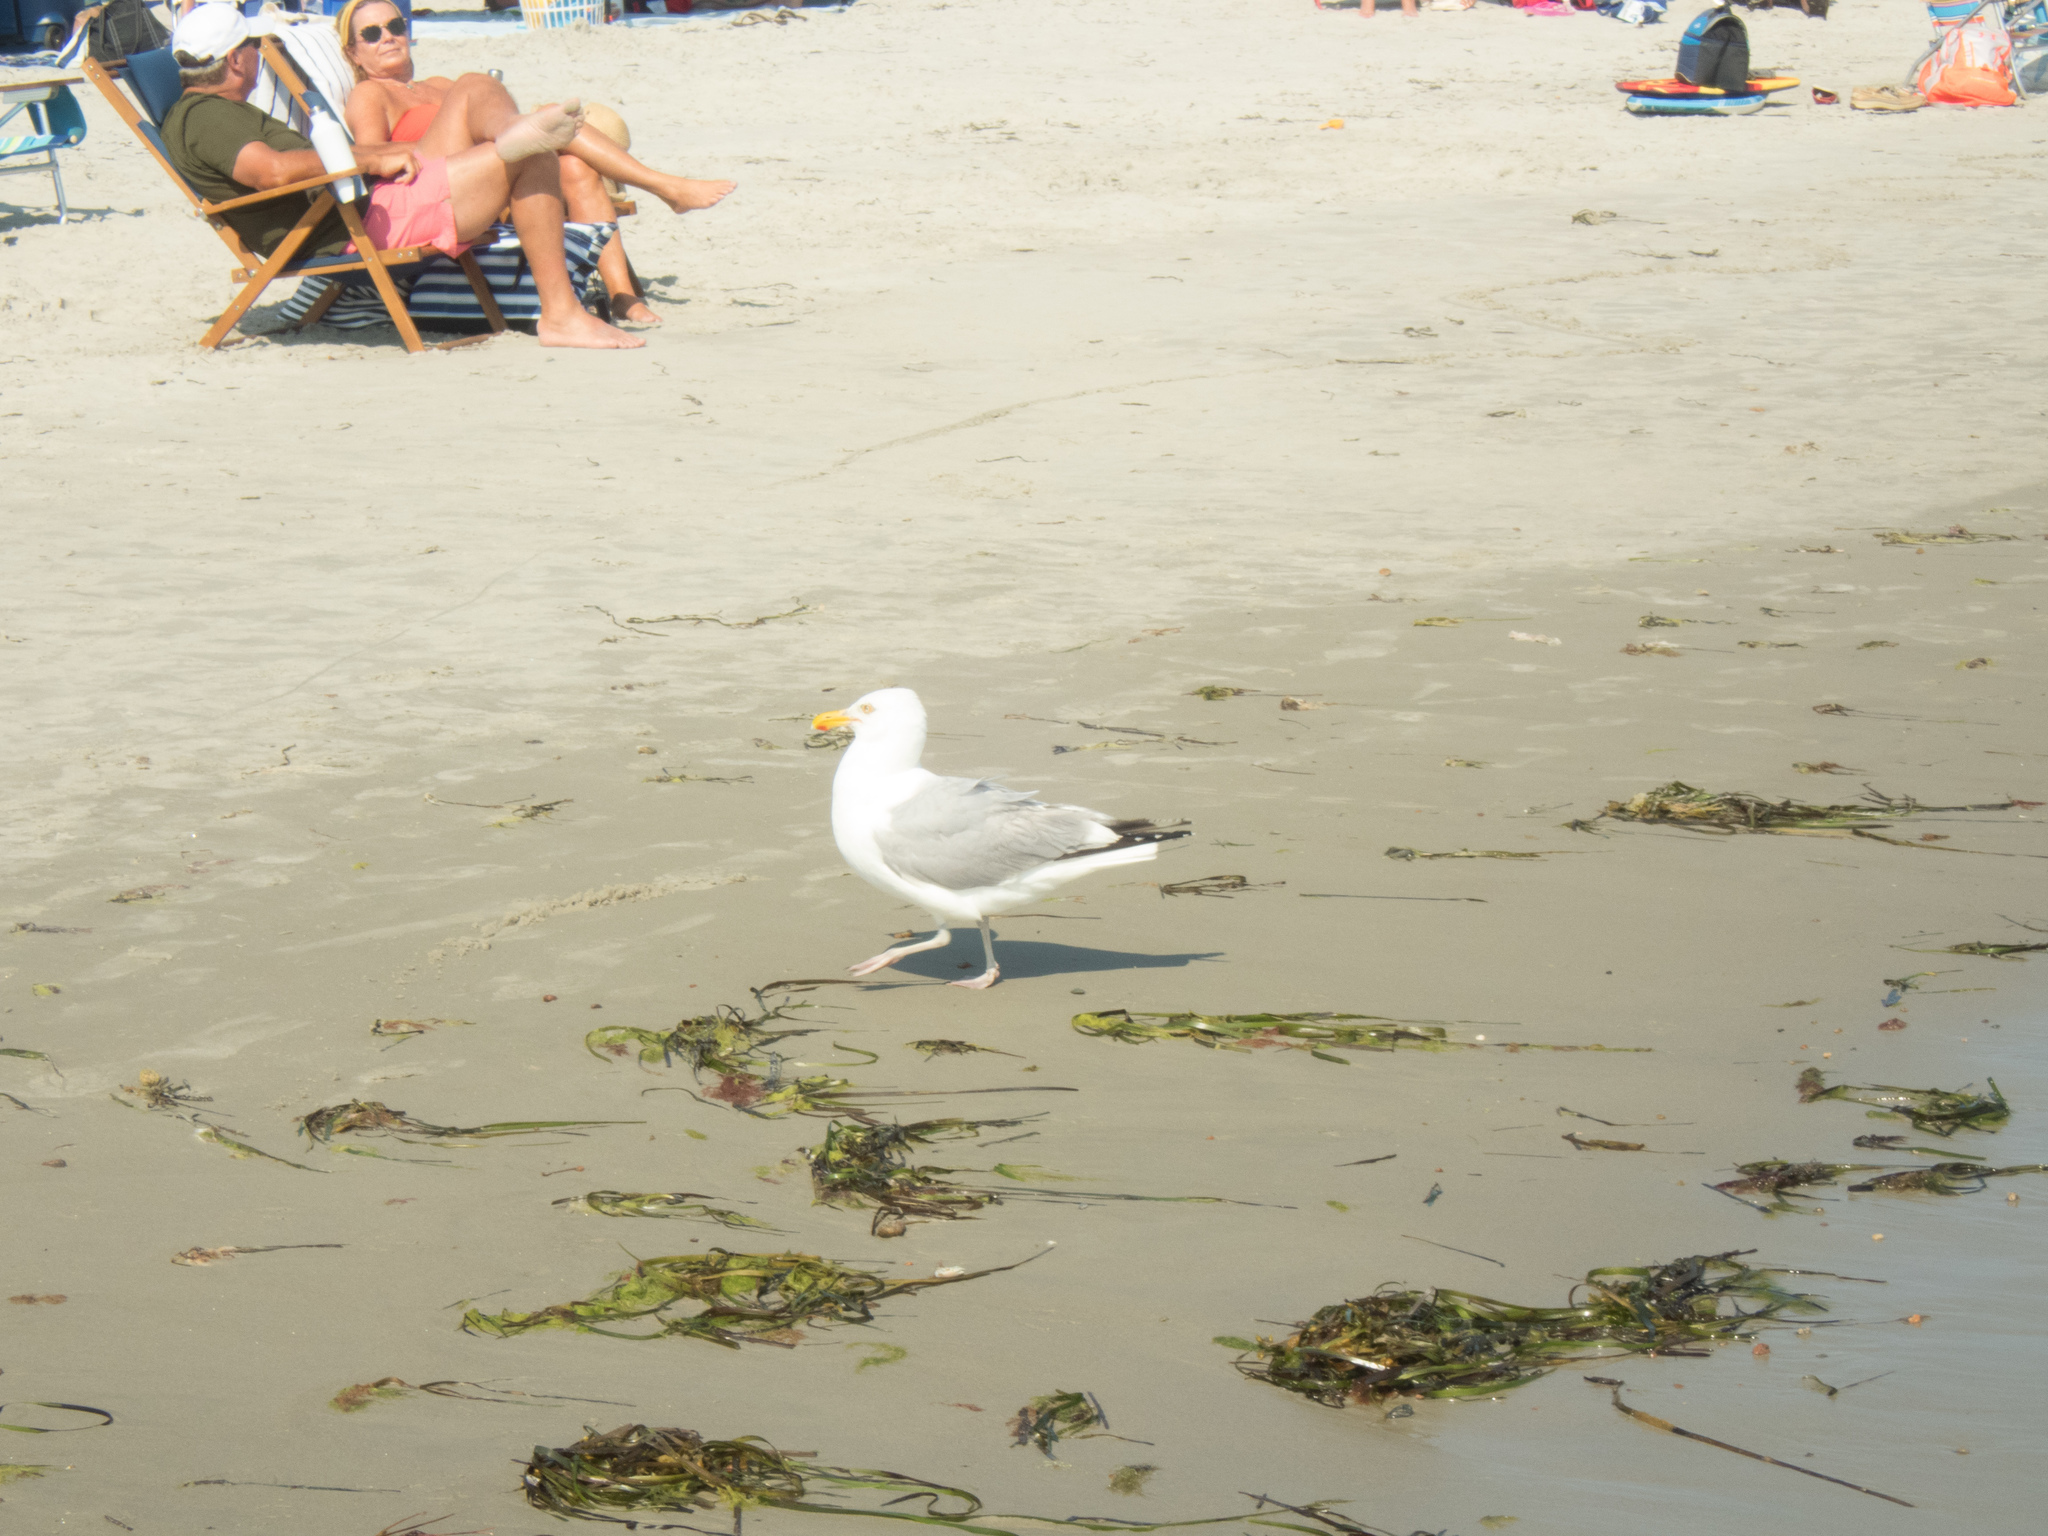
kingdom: Animalia
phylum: Chordata
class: Aves
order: Charadriiformes
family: Laridae
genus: Larus
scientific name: Larus argentatus
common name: Herring gull
